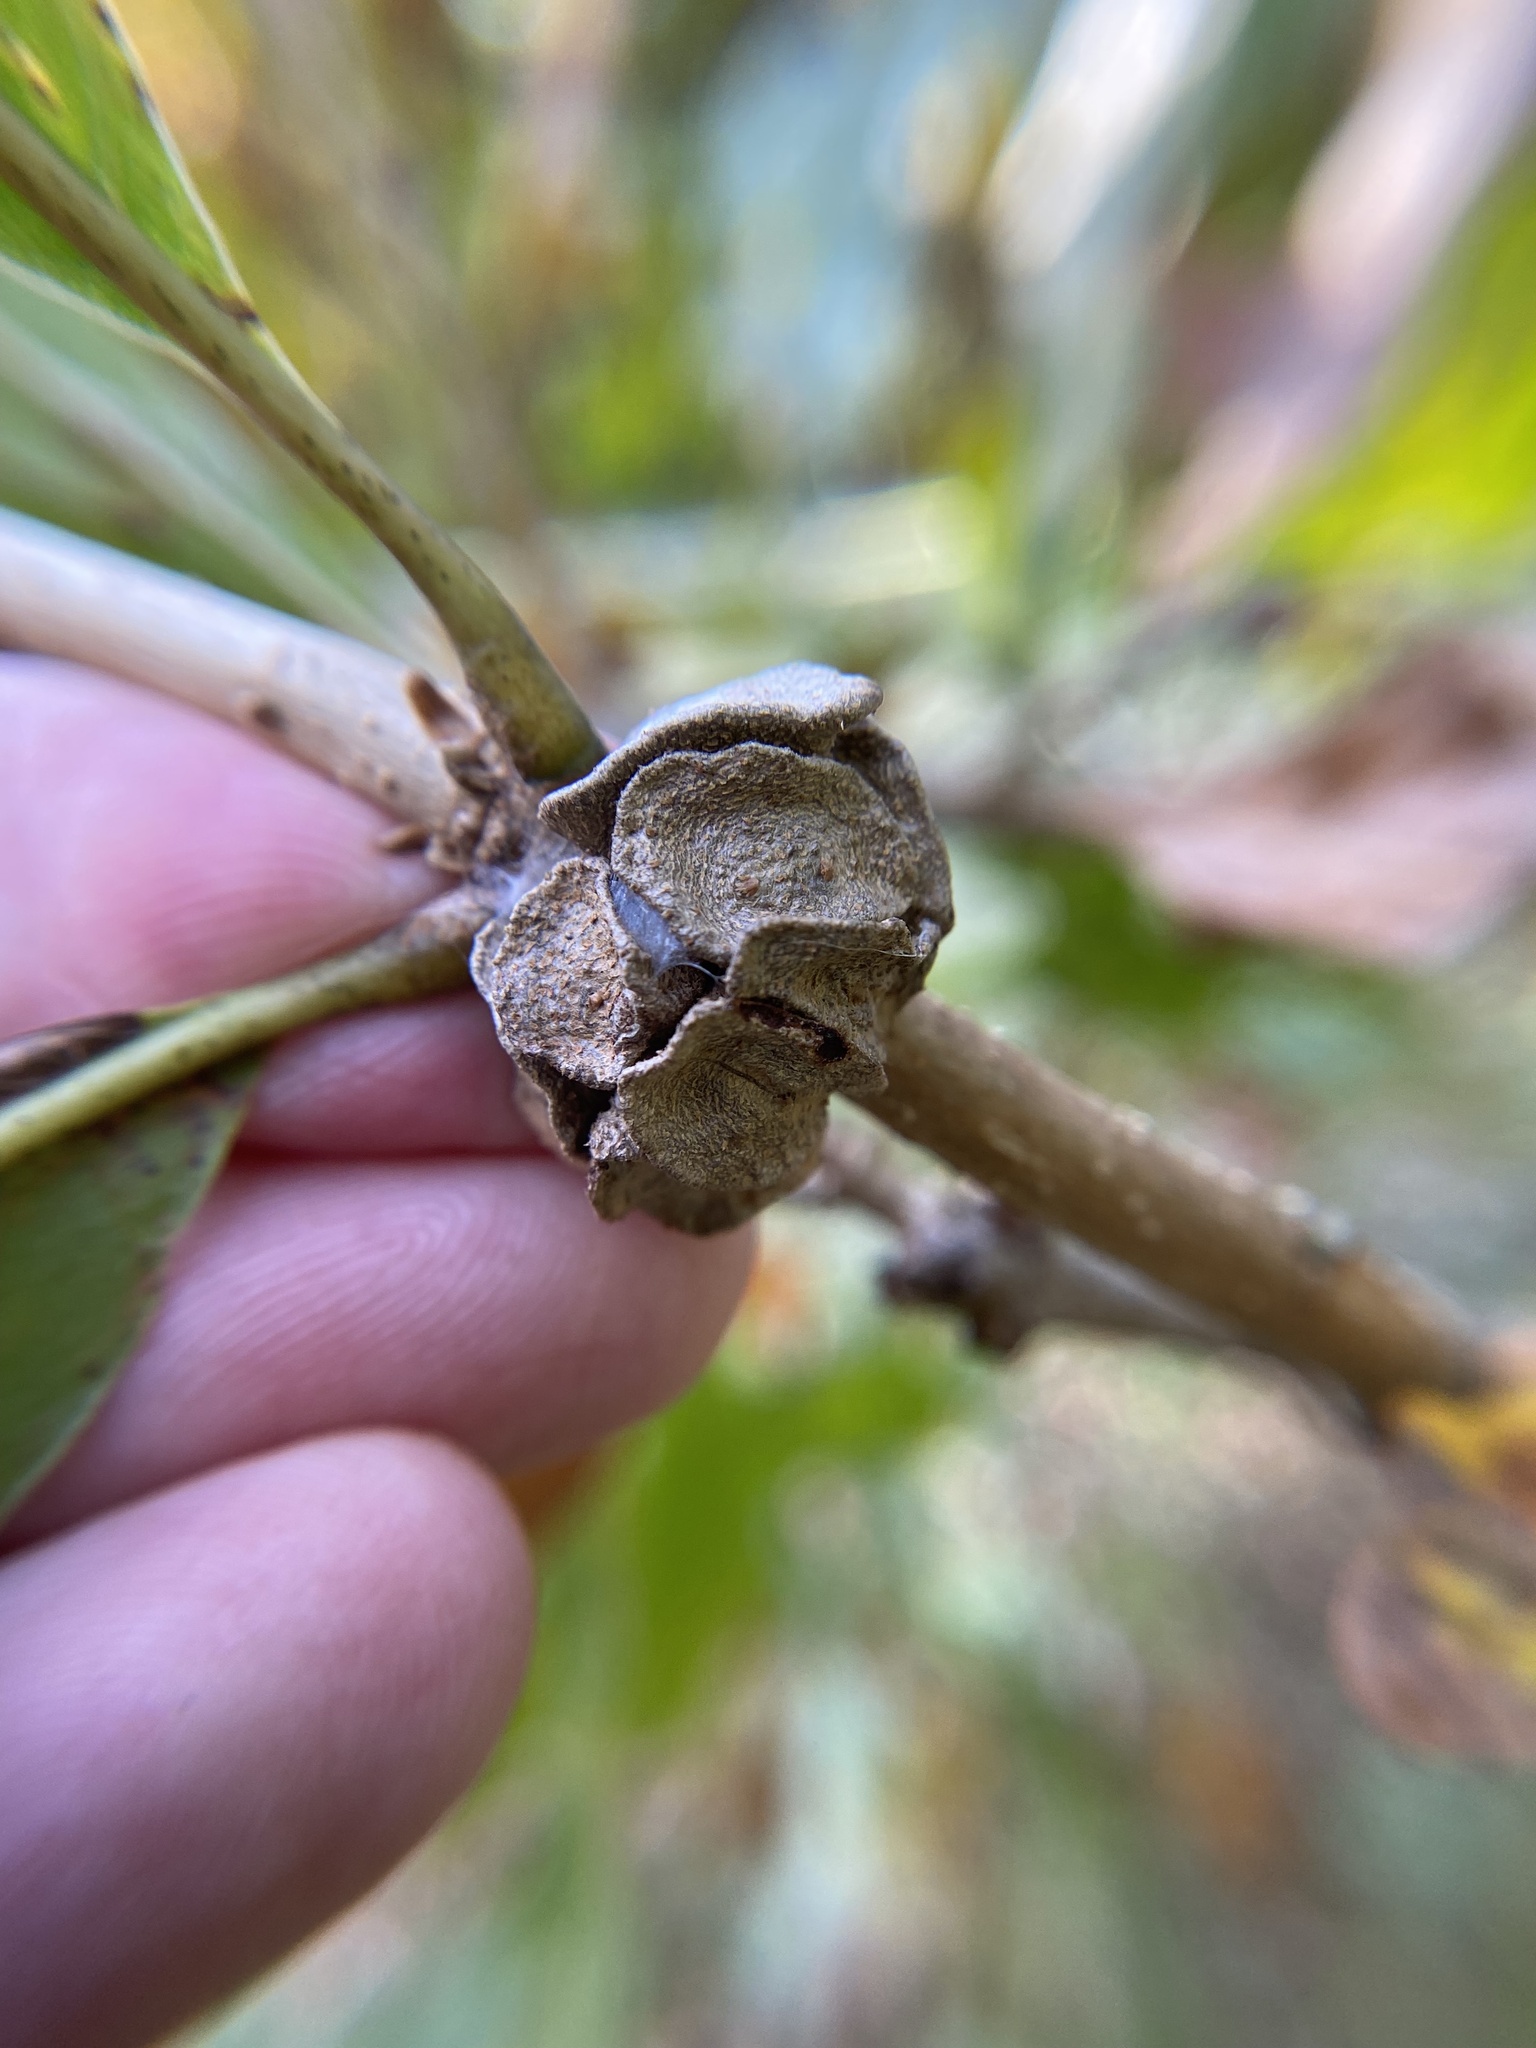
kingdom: Animalia
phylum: Arthropoda
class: Insecta
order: Hymenoptera
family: Cynipidae
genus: Andricus
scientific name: Andricus
